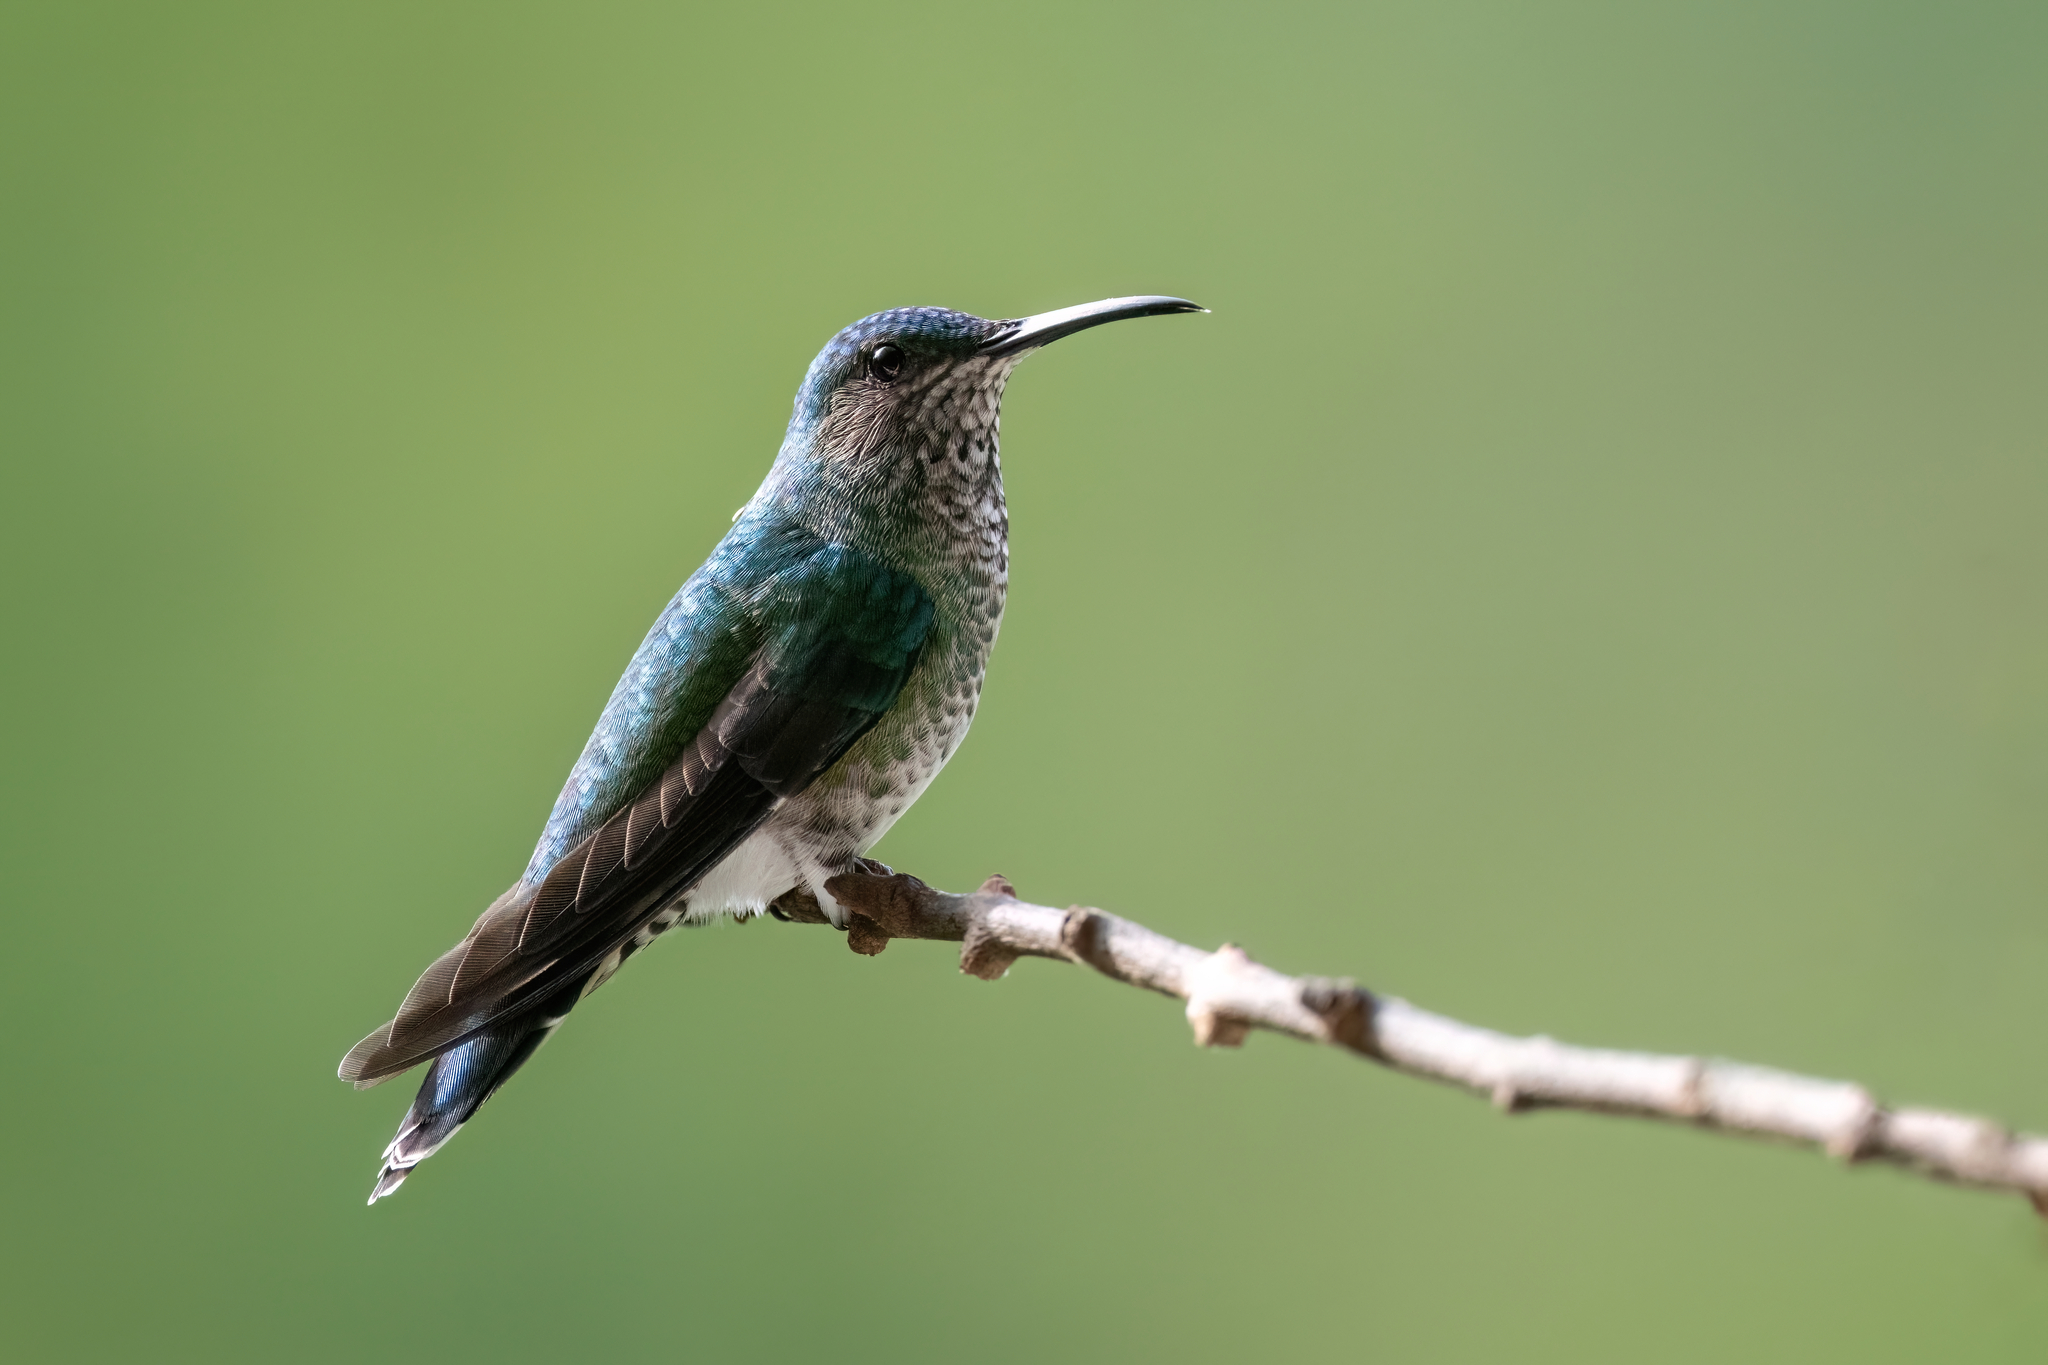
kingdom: Animalia
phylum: Chordata
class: Aves
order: Apodiformes
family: Trochilidae
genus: Florisuga
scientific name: Florisuga mellivora
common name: White-necked jacobin
